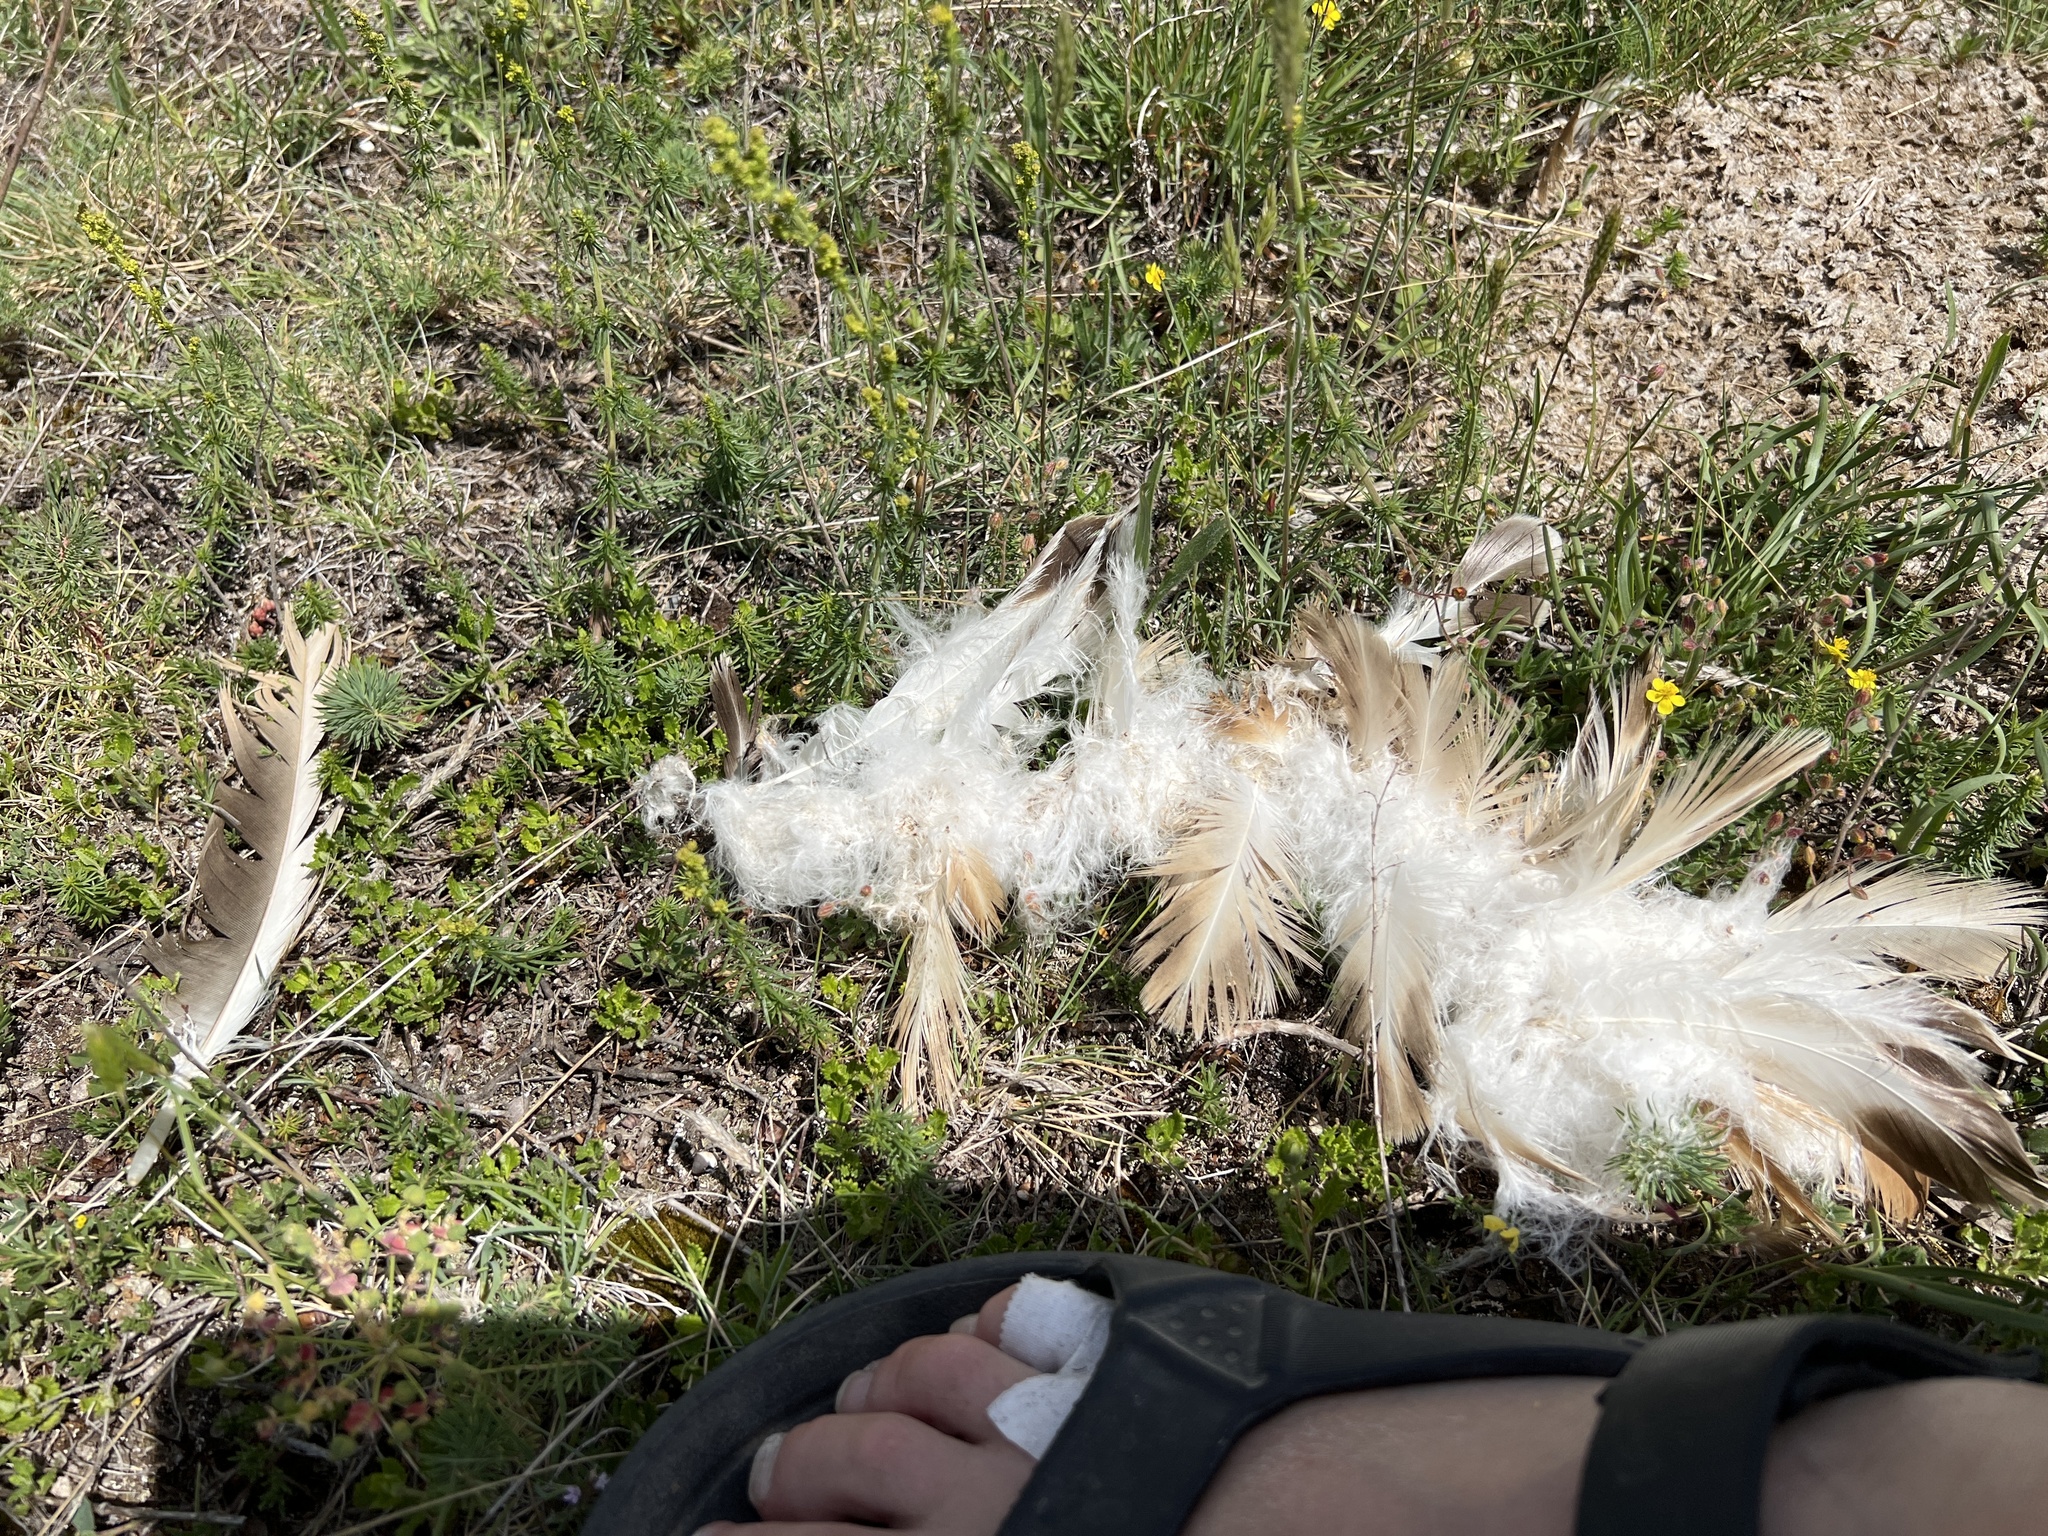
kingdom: Animalia
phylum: Chordata
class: Aves
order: Accipitriformes
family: Accipitridae
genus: Gyps
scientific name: Gyps fulvus
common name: Griffon vulture
